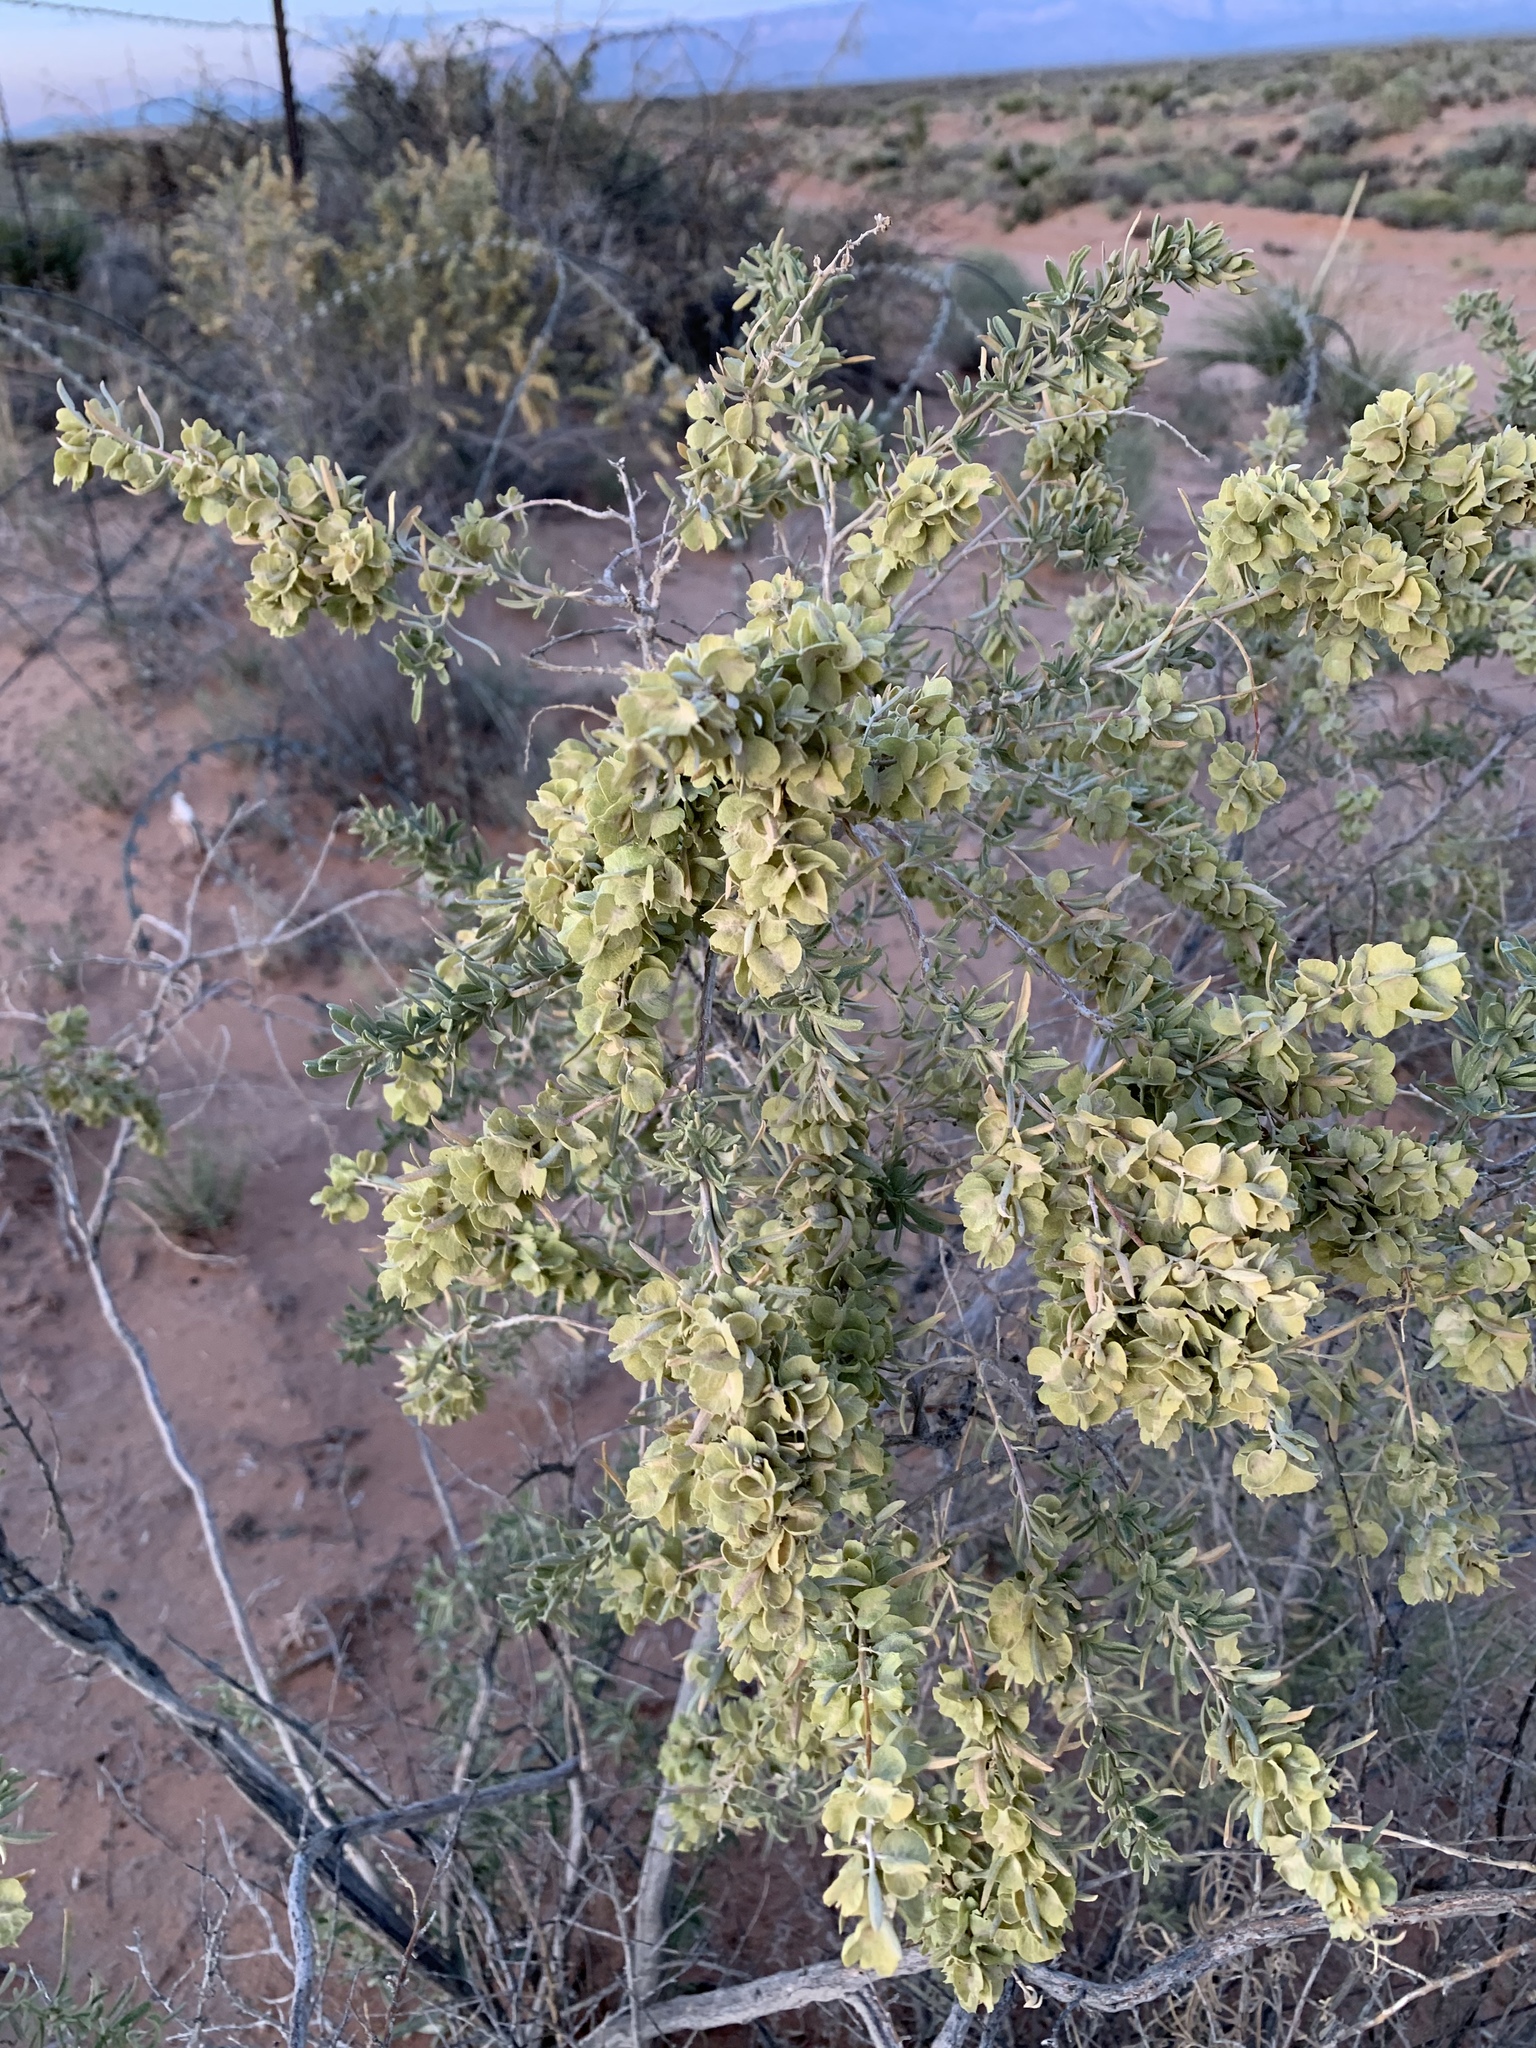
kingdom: Plantae
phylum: Tracheophyta
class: Magnoliopsida
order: Caryophyllales
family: Amaranthaceae
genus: Atriplex
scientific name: Atriplex canescens
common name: Four-wing saltbush
